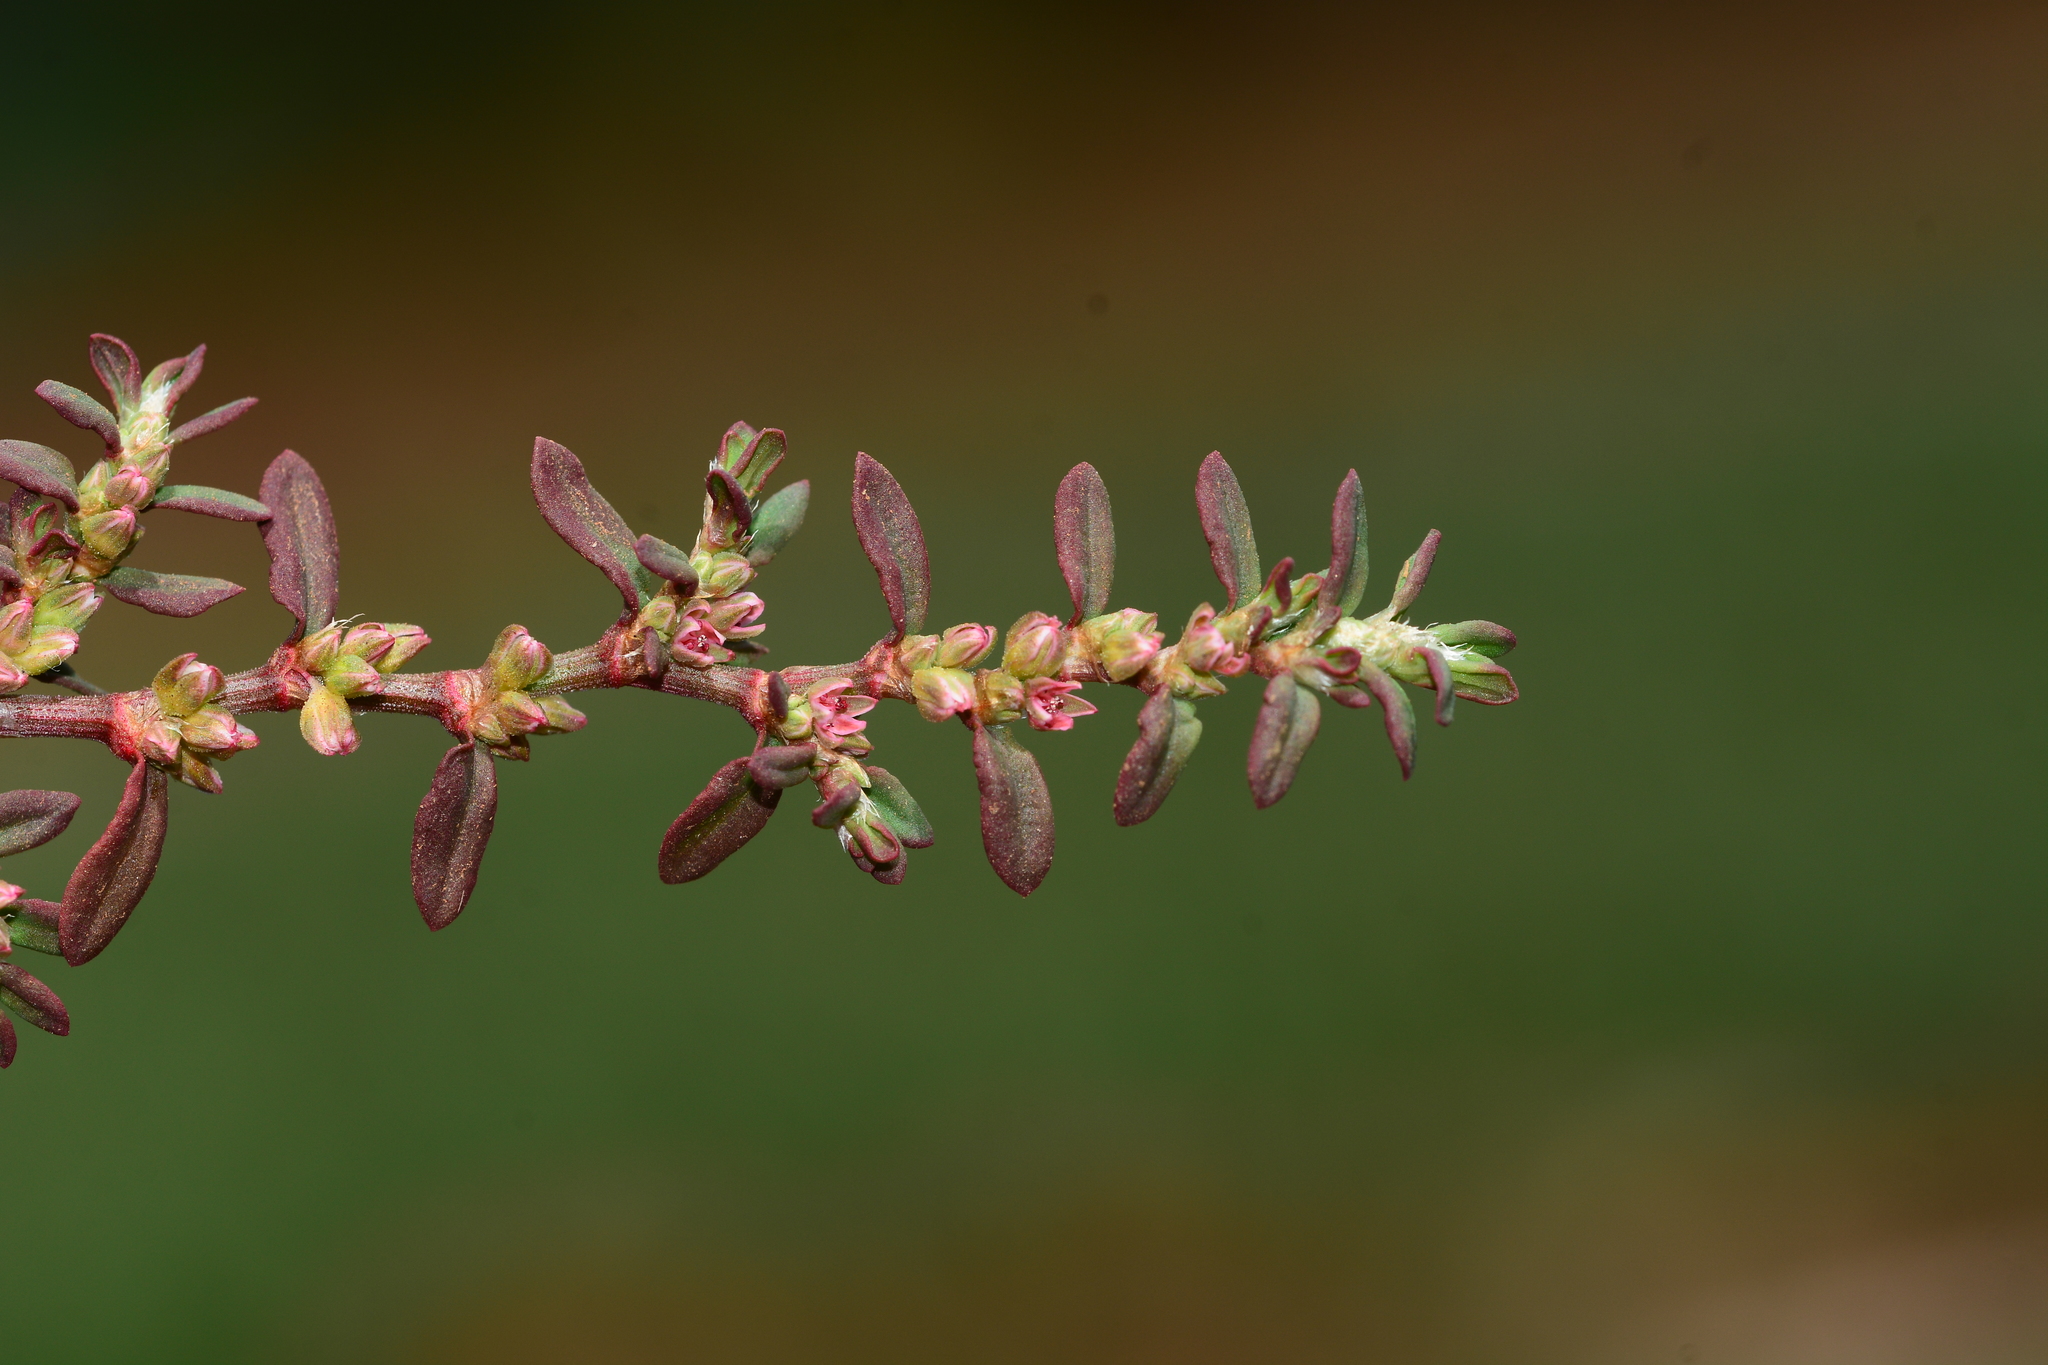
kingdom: Plantae
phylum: Tracheophyta
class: Magnoliopsida
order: Caryophyllales
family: Polygonaceae
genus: Polygonum
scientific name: Polygonum plebeium
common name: Common knotweed
